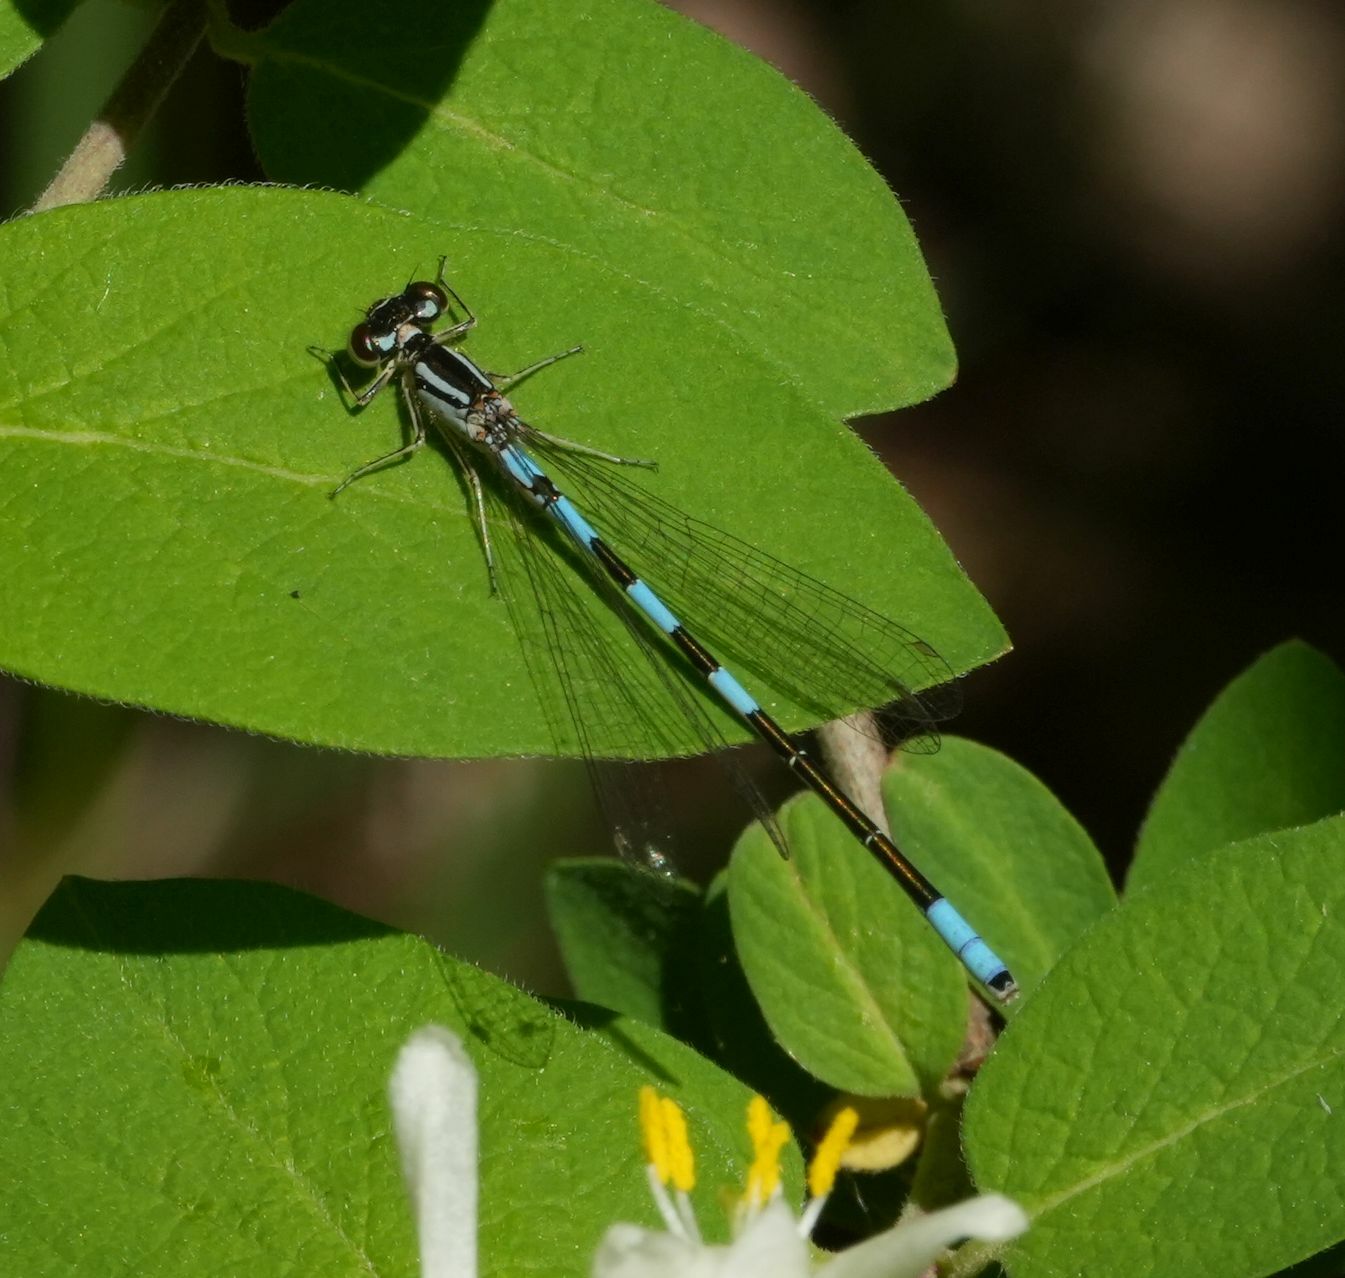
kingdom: Animalia
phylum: Arthropoda
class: Insecta
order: Odonata
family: Coenagrionidae
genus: Coenagrion
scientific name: Coenagrion resolutum
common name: Taiga bluet
